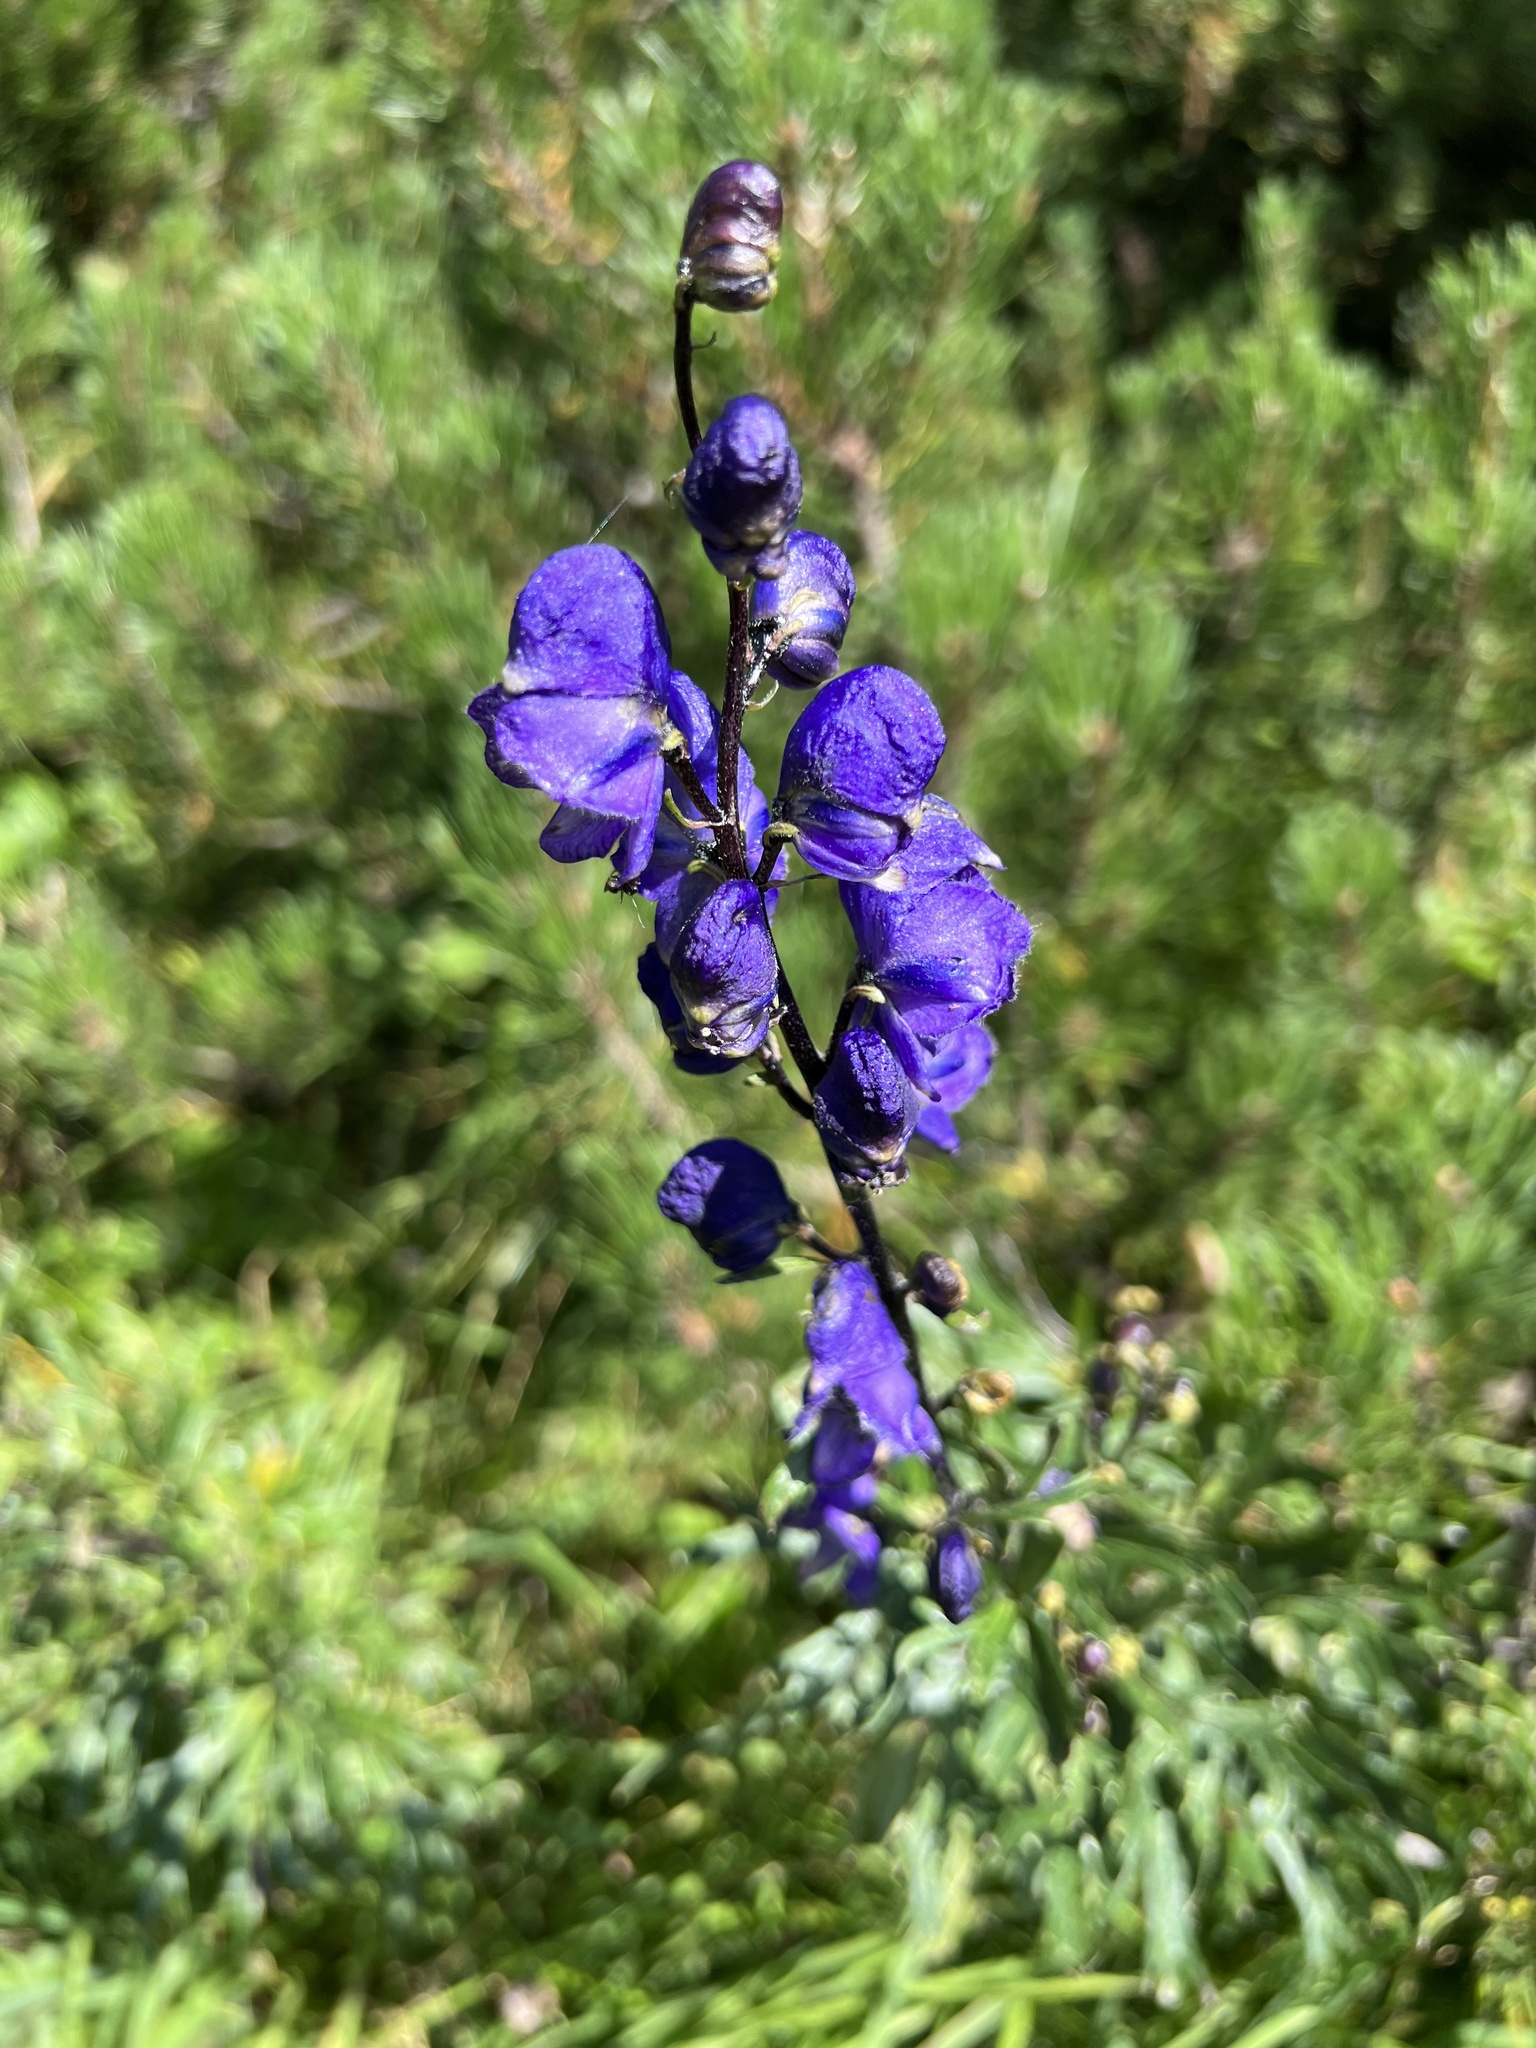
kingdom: Plantae
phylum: Tracheophyta
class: Magnoliopsida
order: Ranunculales
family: Ranunculaceae
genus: Aconitum
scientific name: Aconitum napellus
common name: Garden monkshood
